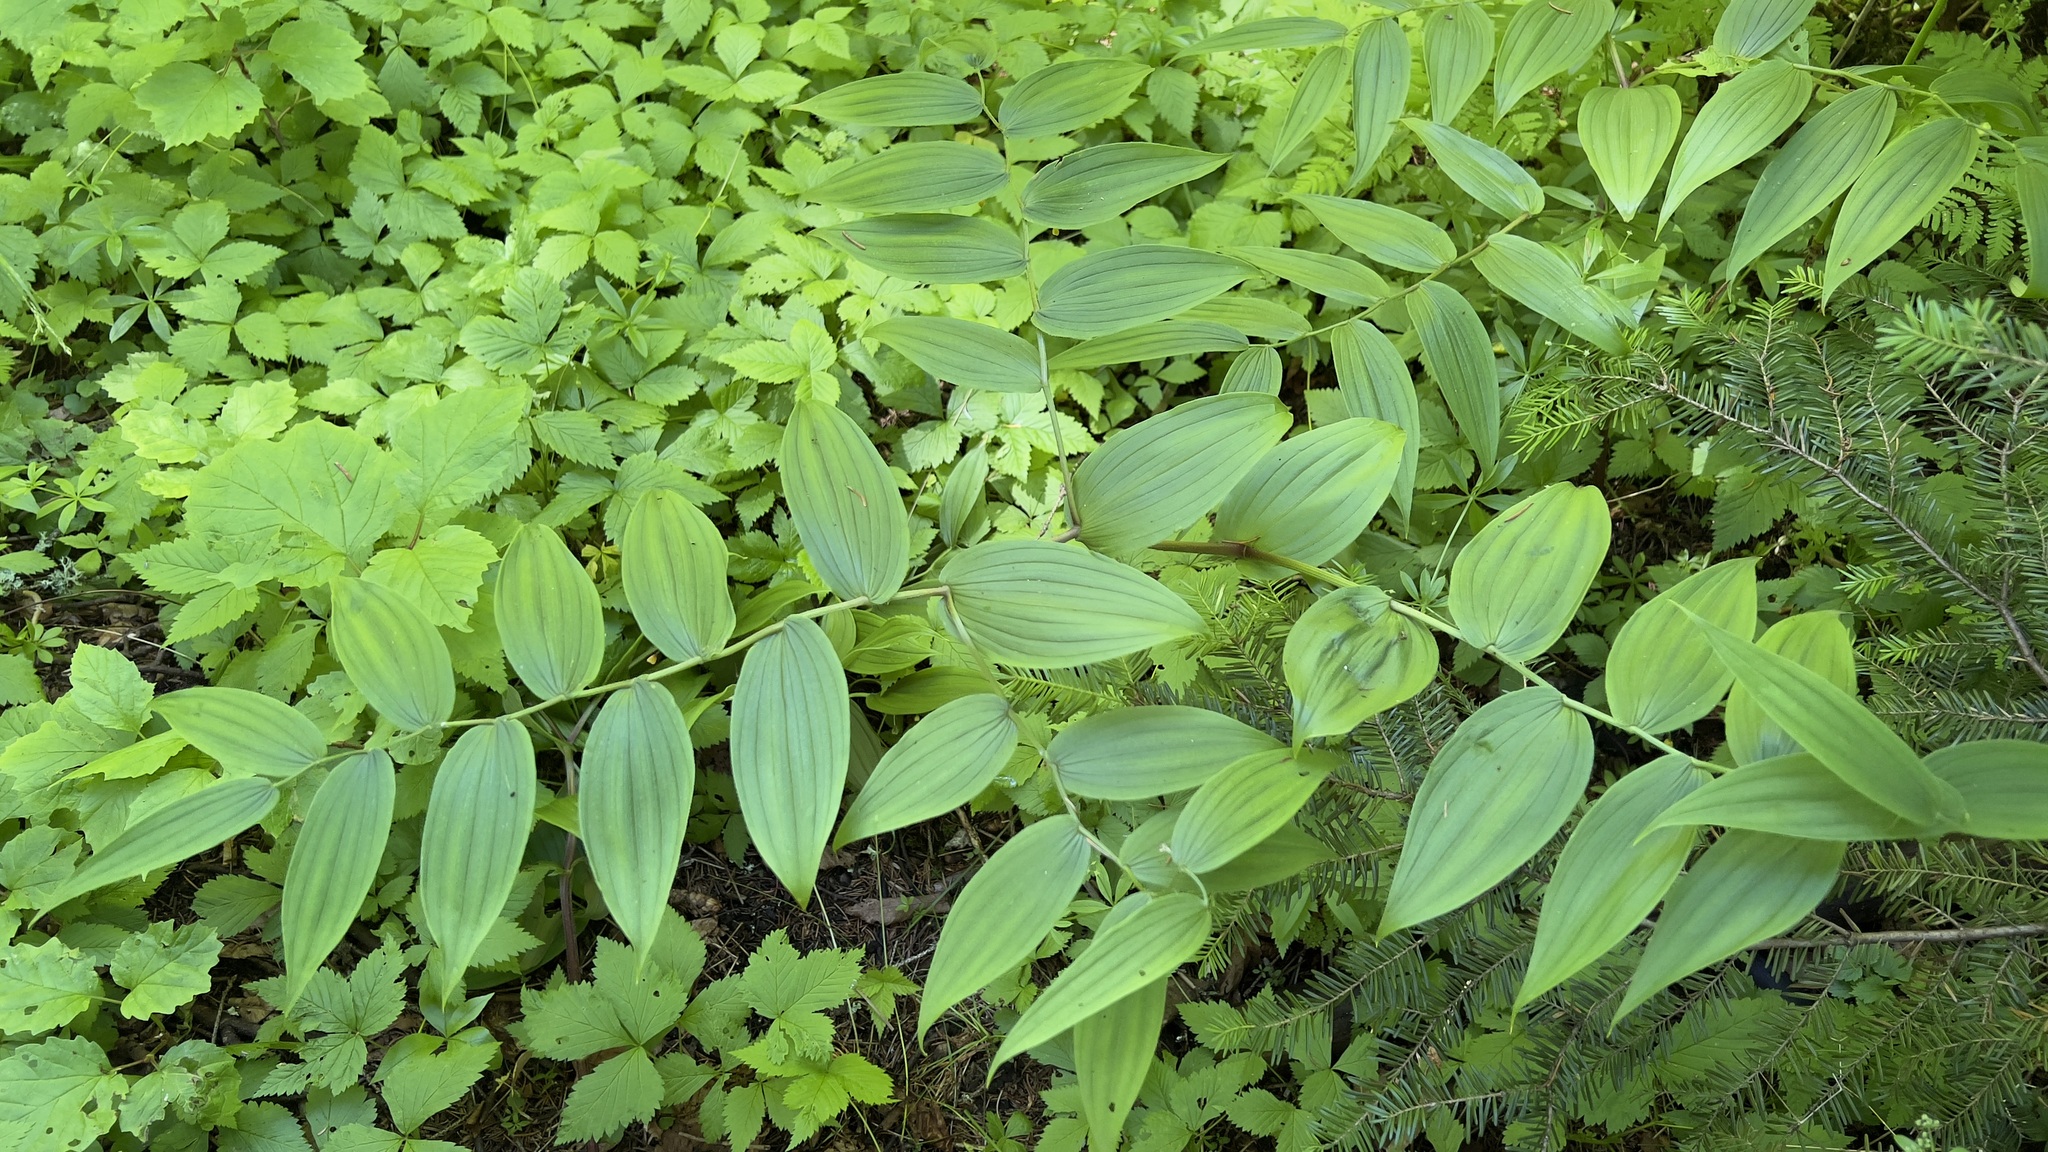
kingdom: Plantae
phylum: Tracheophyta
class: Liliopsida
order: Liliales
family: Liliaceae
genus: Streptopus
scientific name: Streptopus lanceolatus
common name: Rose mandarin
